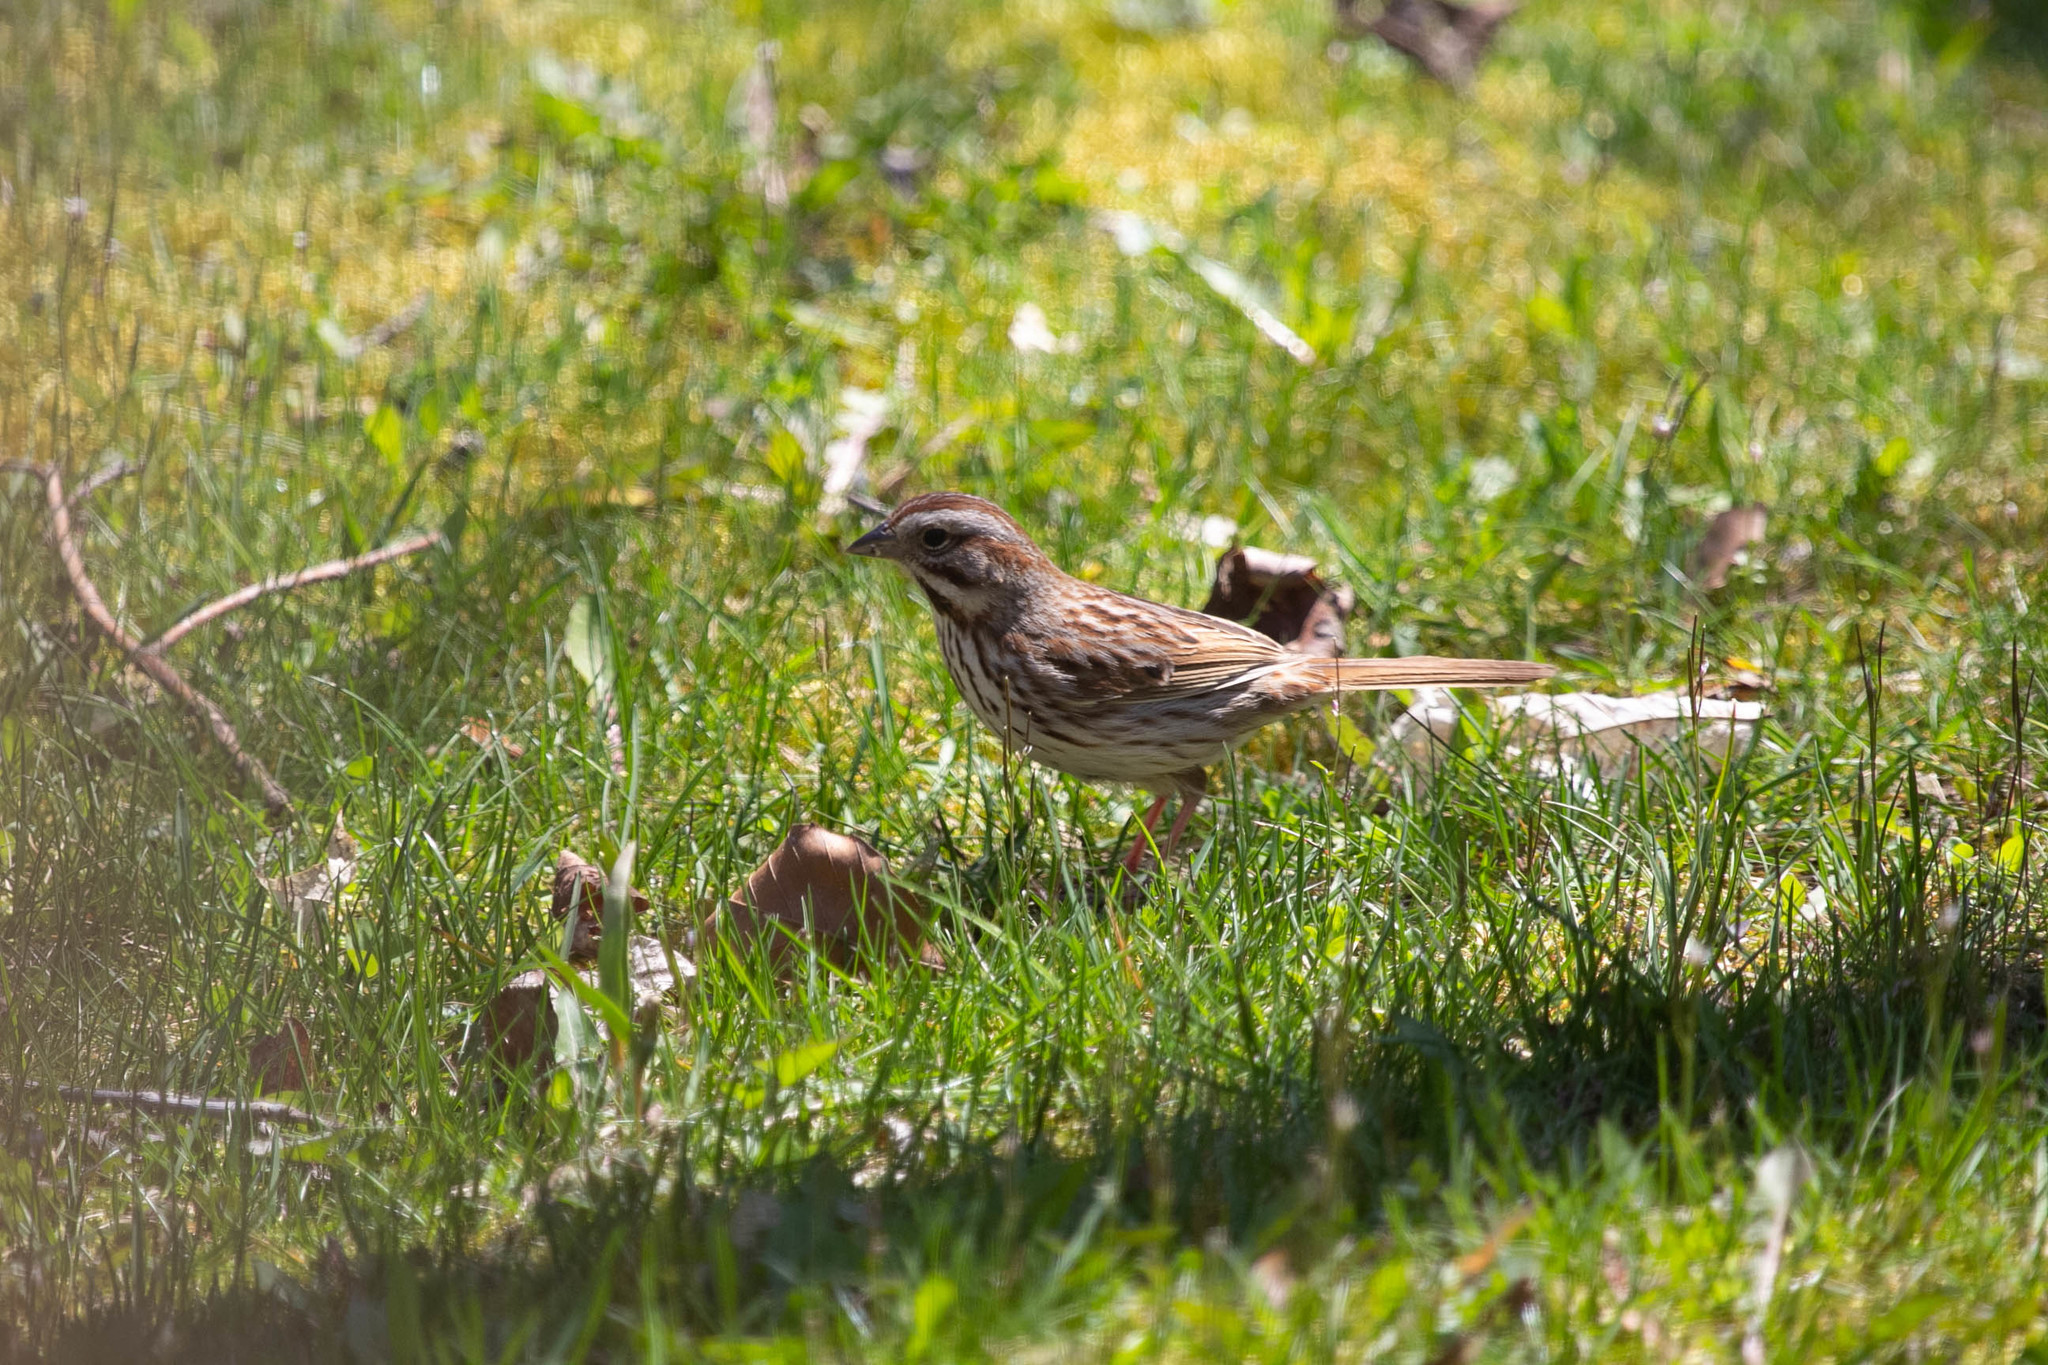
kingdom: Animalia
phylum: Chordata
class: Aves
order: Passeriformes
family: Passerellidae
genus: Melospiza
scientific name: Melospiza melodia
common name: Song sparrow
